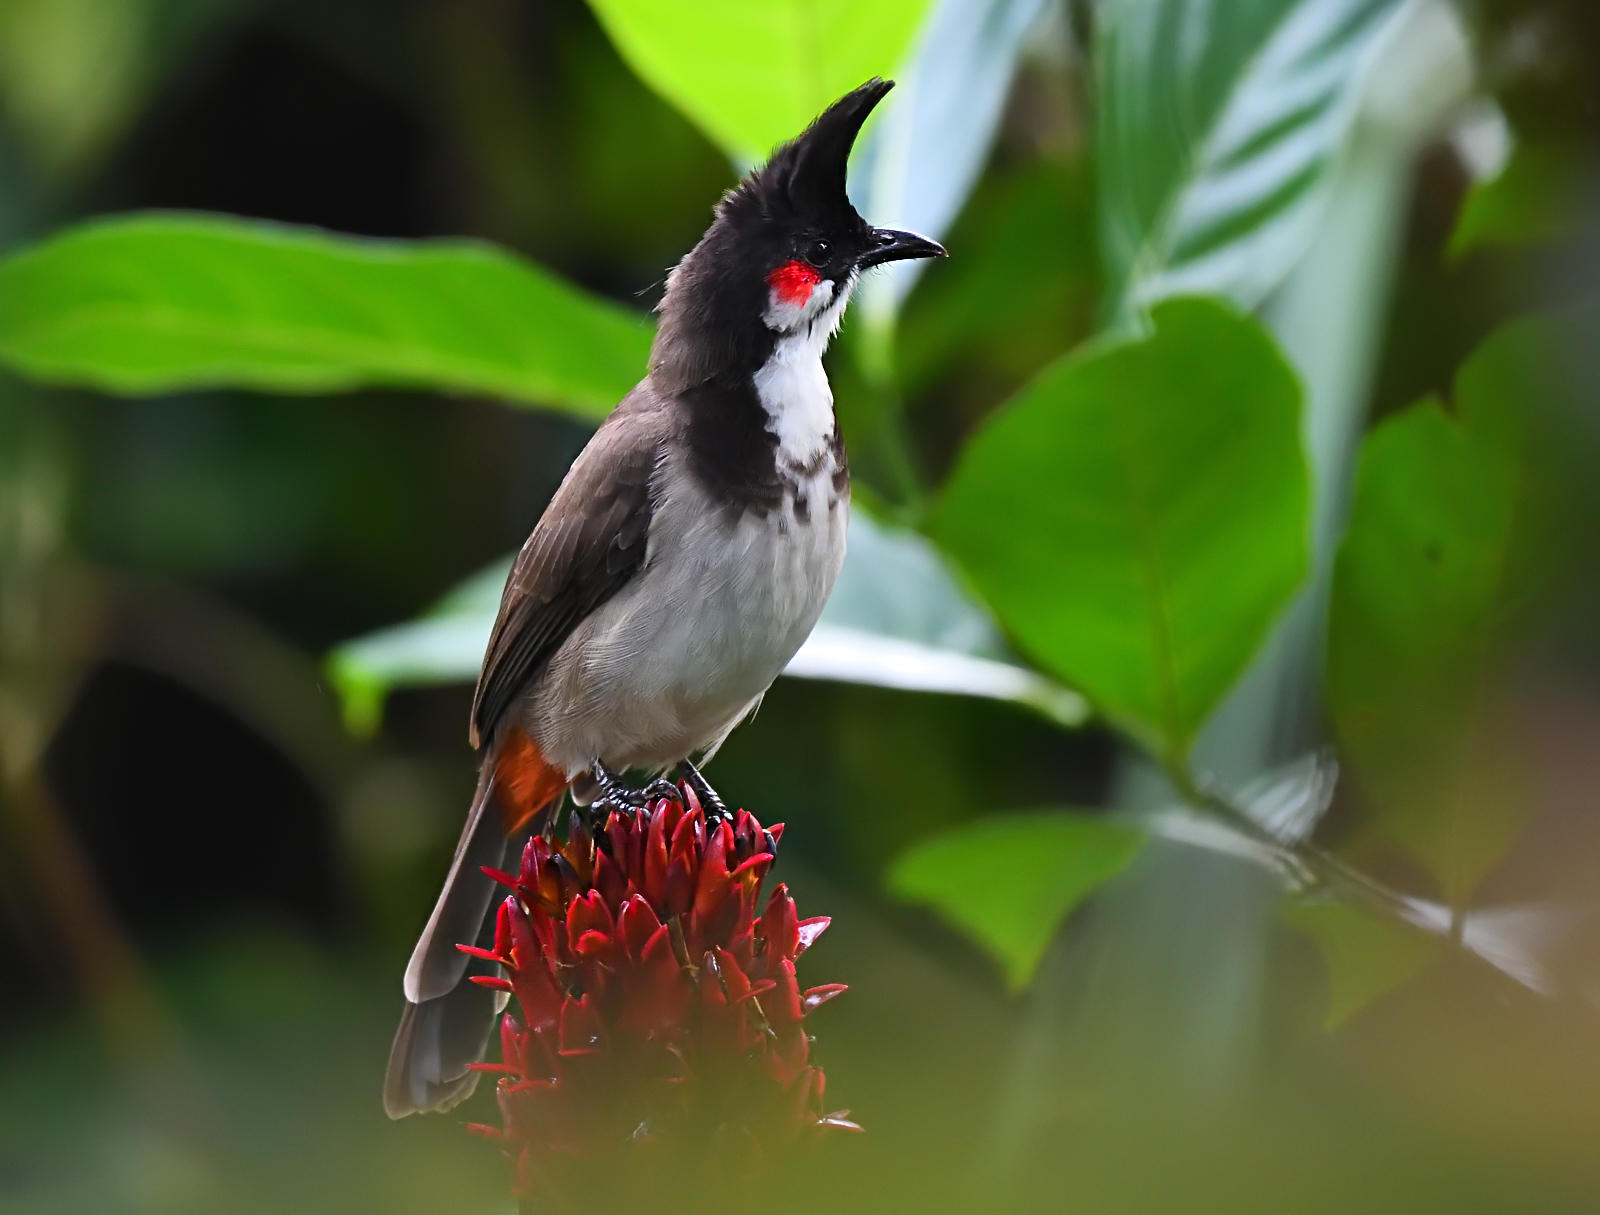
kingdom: Animalia
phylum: Chordata
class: Aves
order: Passeriformes
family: Pycnonotidae
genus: Pycnonotus
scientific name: Pycnonotus jocosus
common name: Red-whiskered bulbul
